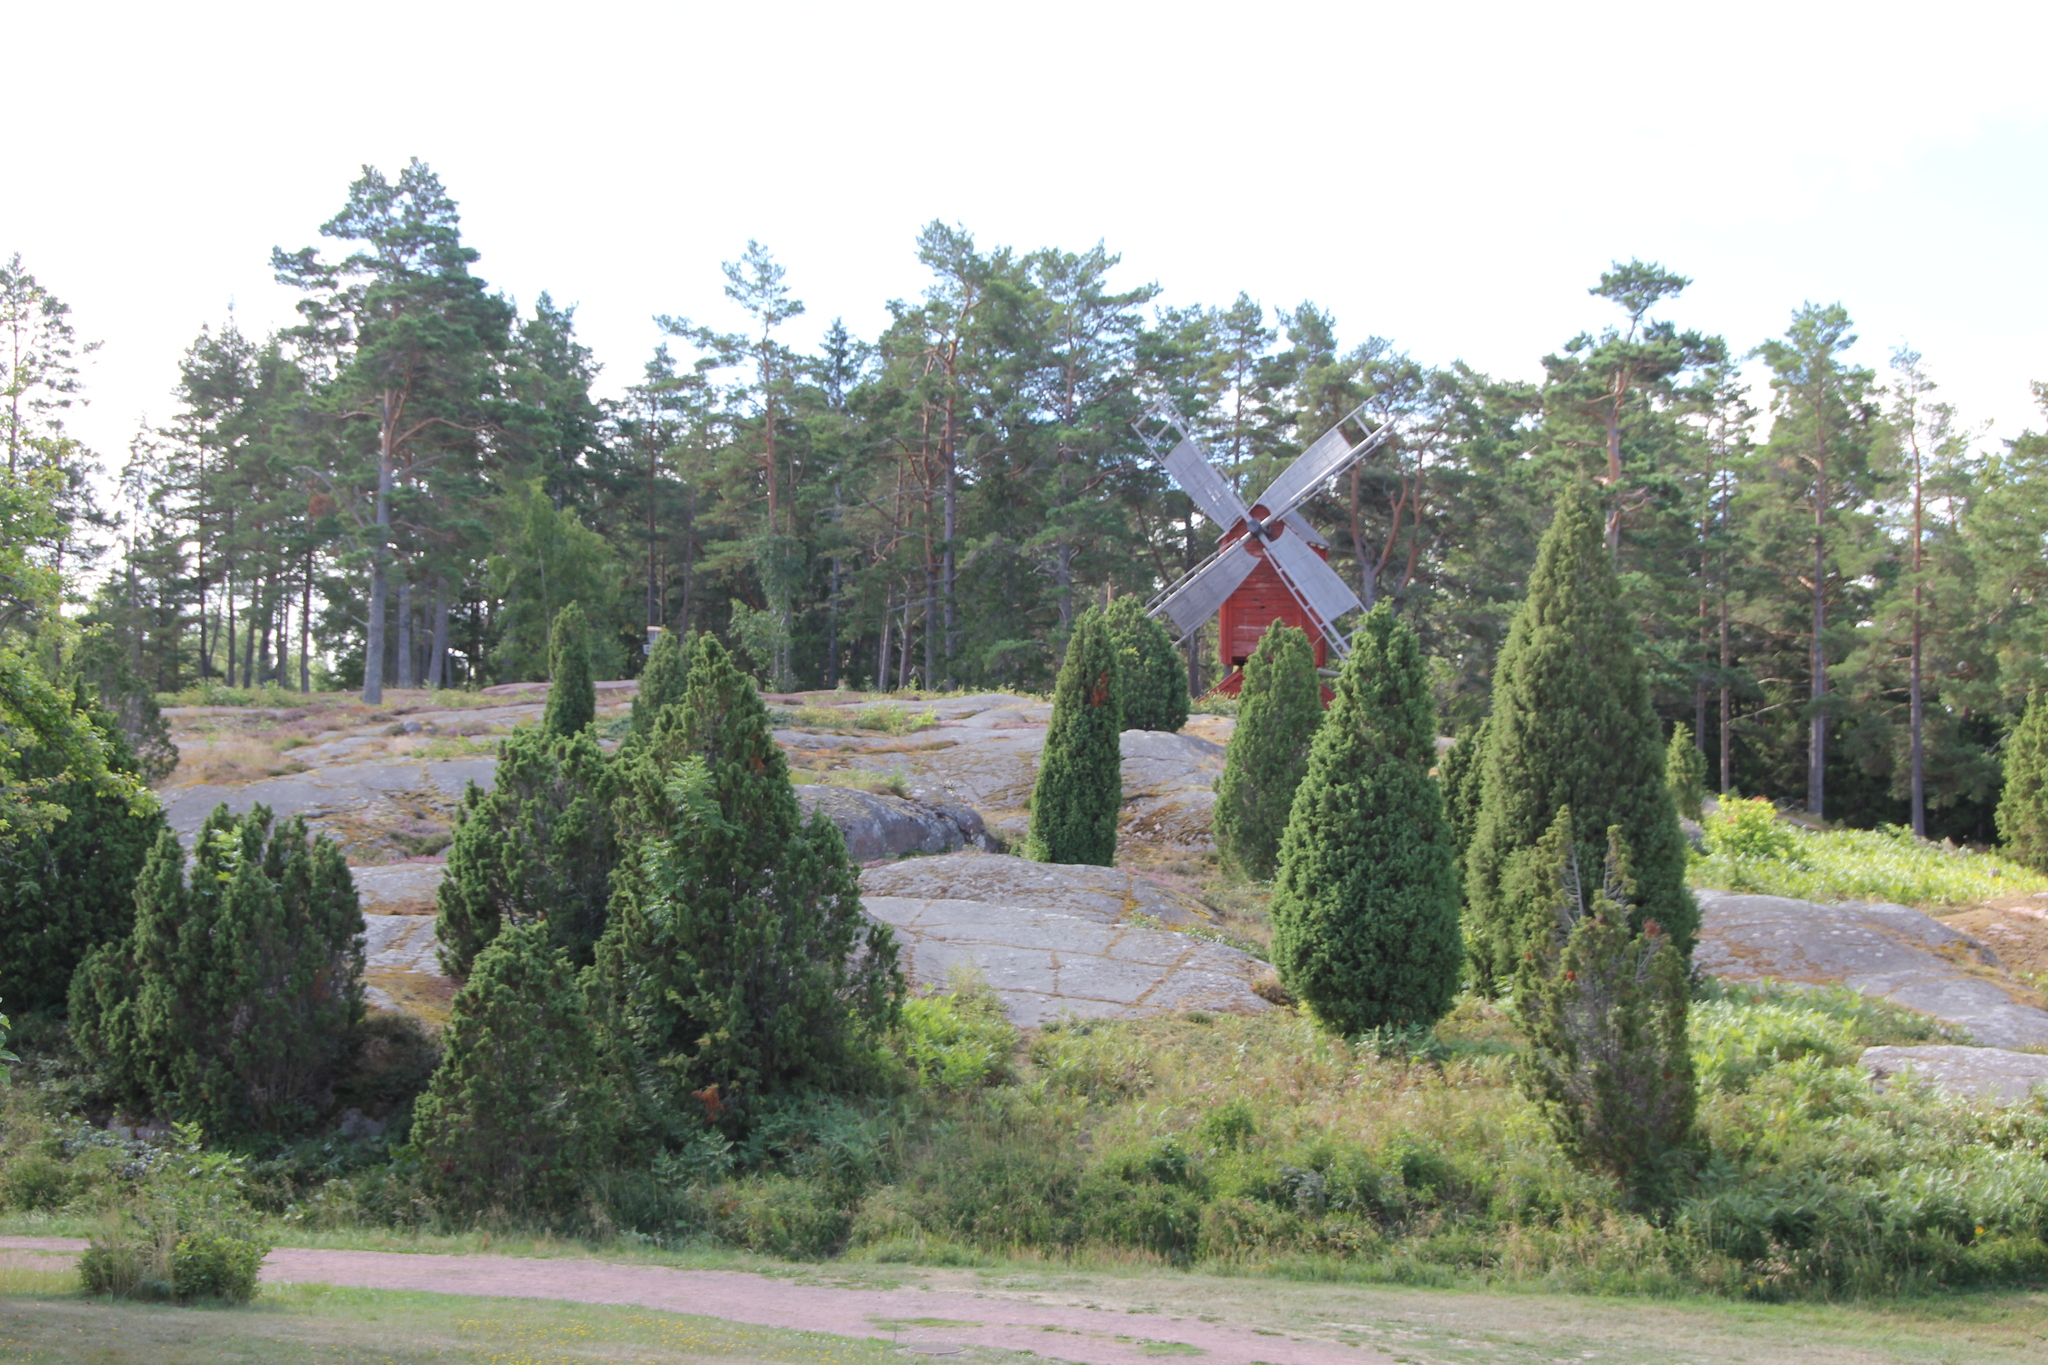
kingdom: Plantae
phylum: Tracheophyta
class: Pinopsida
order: Pinales
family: Cupressaceae
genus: Juniperus
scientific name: Juniperus communis
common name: Common juniper
